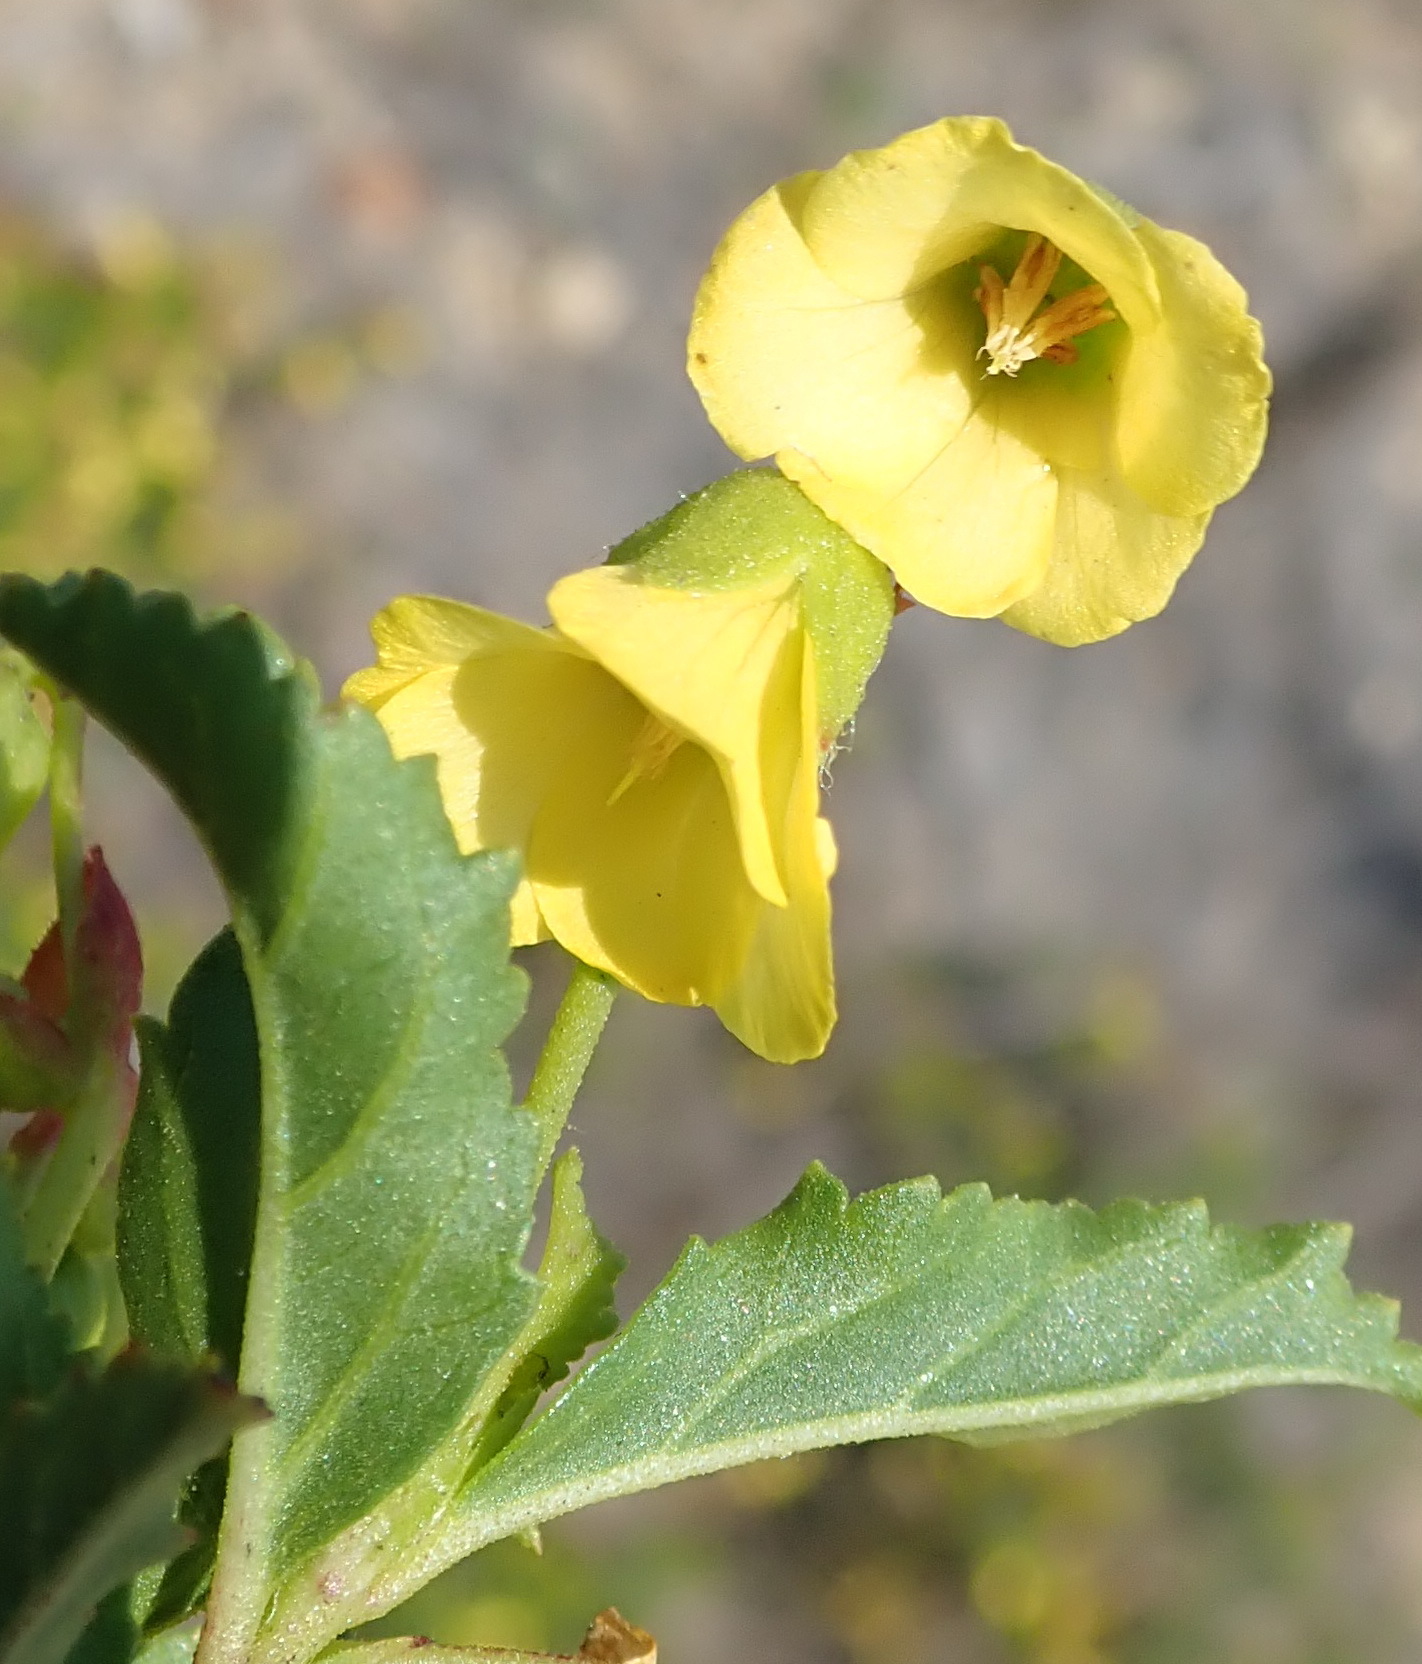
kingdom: Plantae
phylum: Tracheophyta
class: Magnoliopsida
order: Malvales
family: Malvaceae
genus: Hermannia
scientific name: Hermannia saccifera
